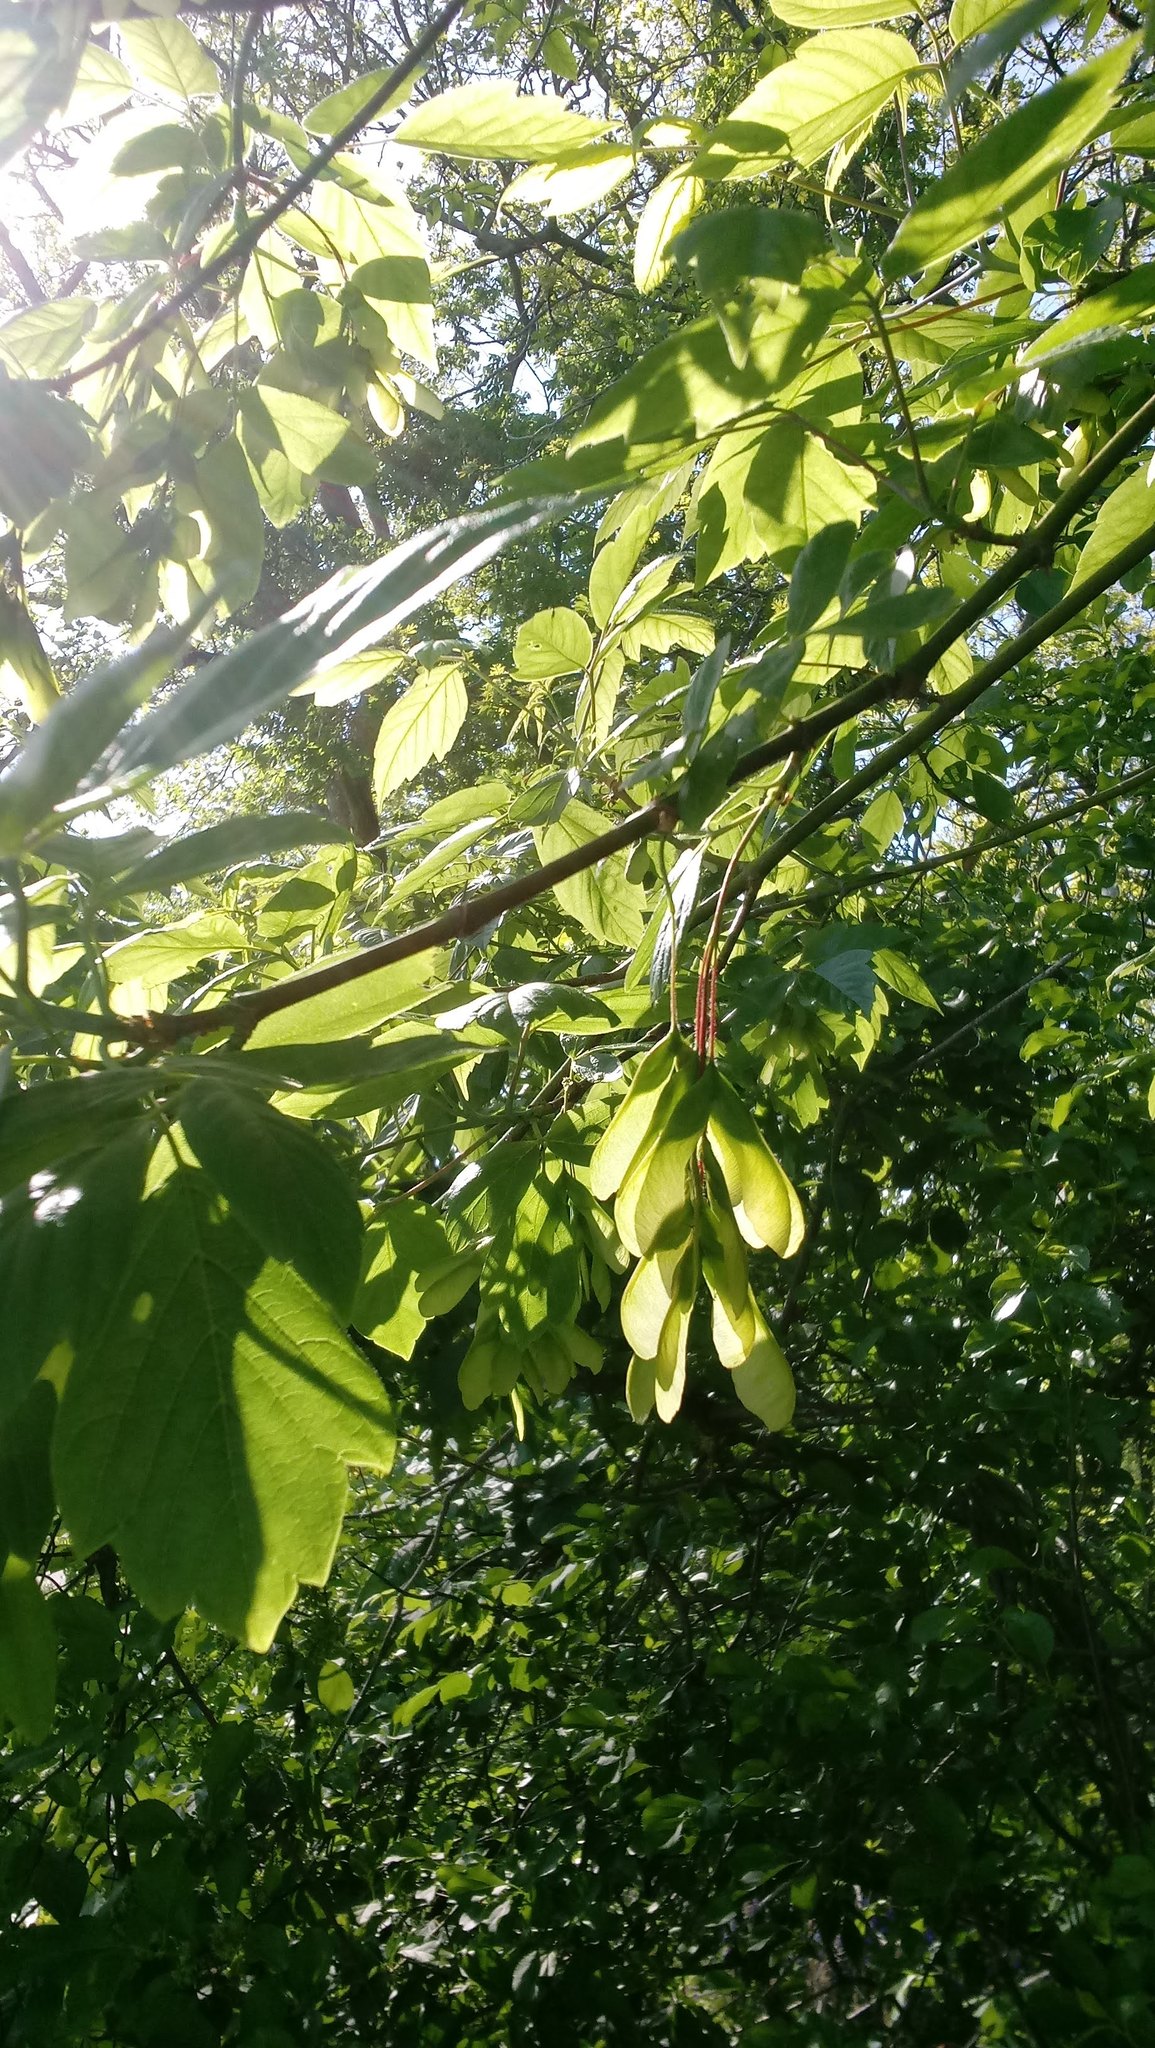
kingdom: Plantae
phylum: Tracheophyta
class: Magnoliopsida
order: Sapindales
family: Sapindaceae
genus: Acer
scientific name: Acer negundo
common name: Ashleaf maple
